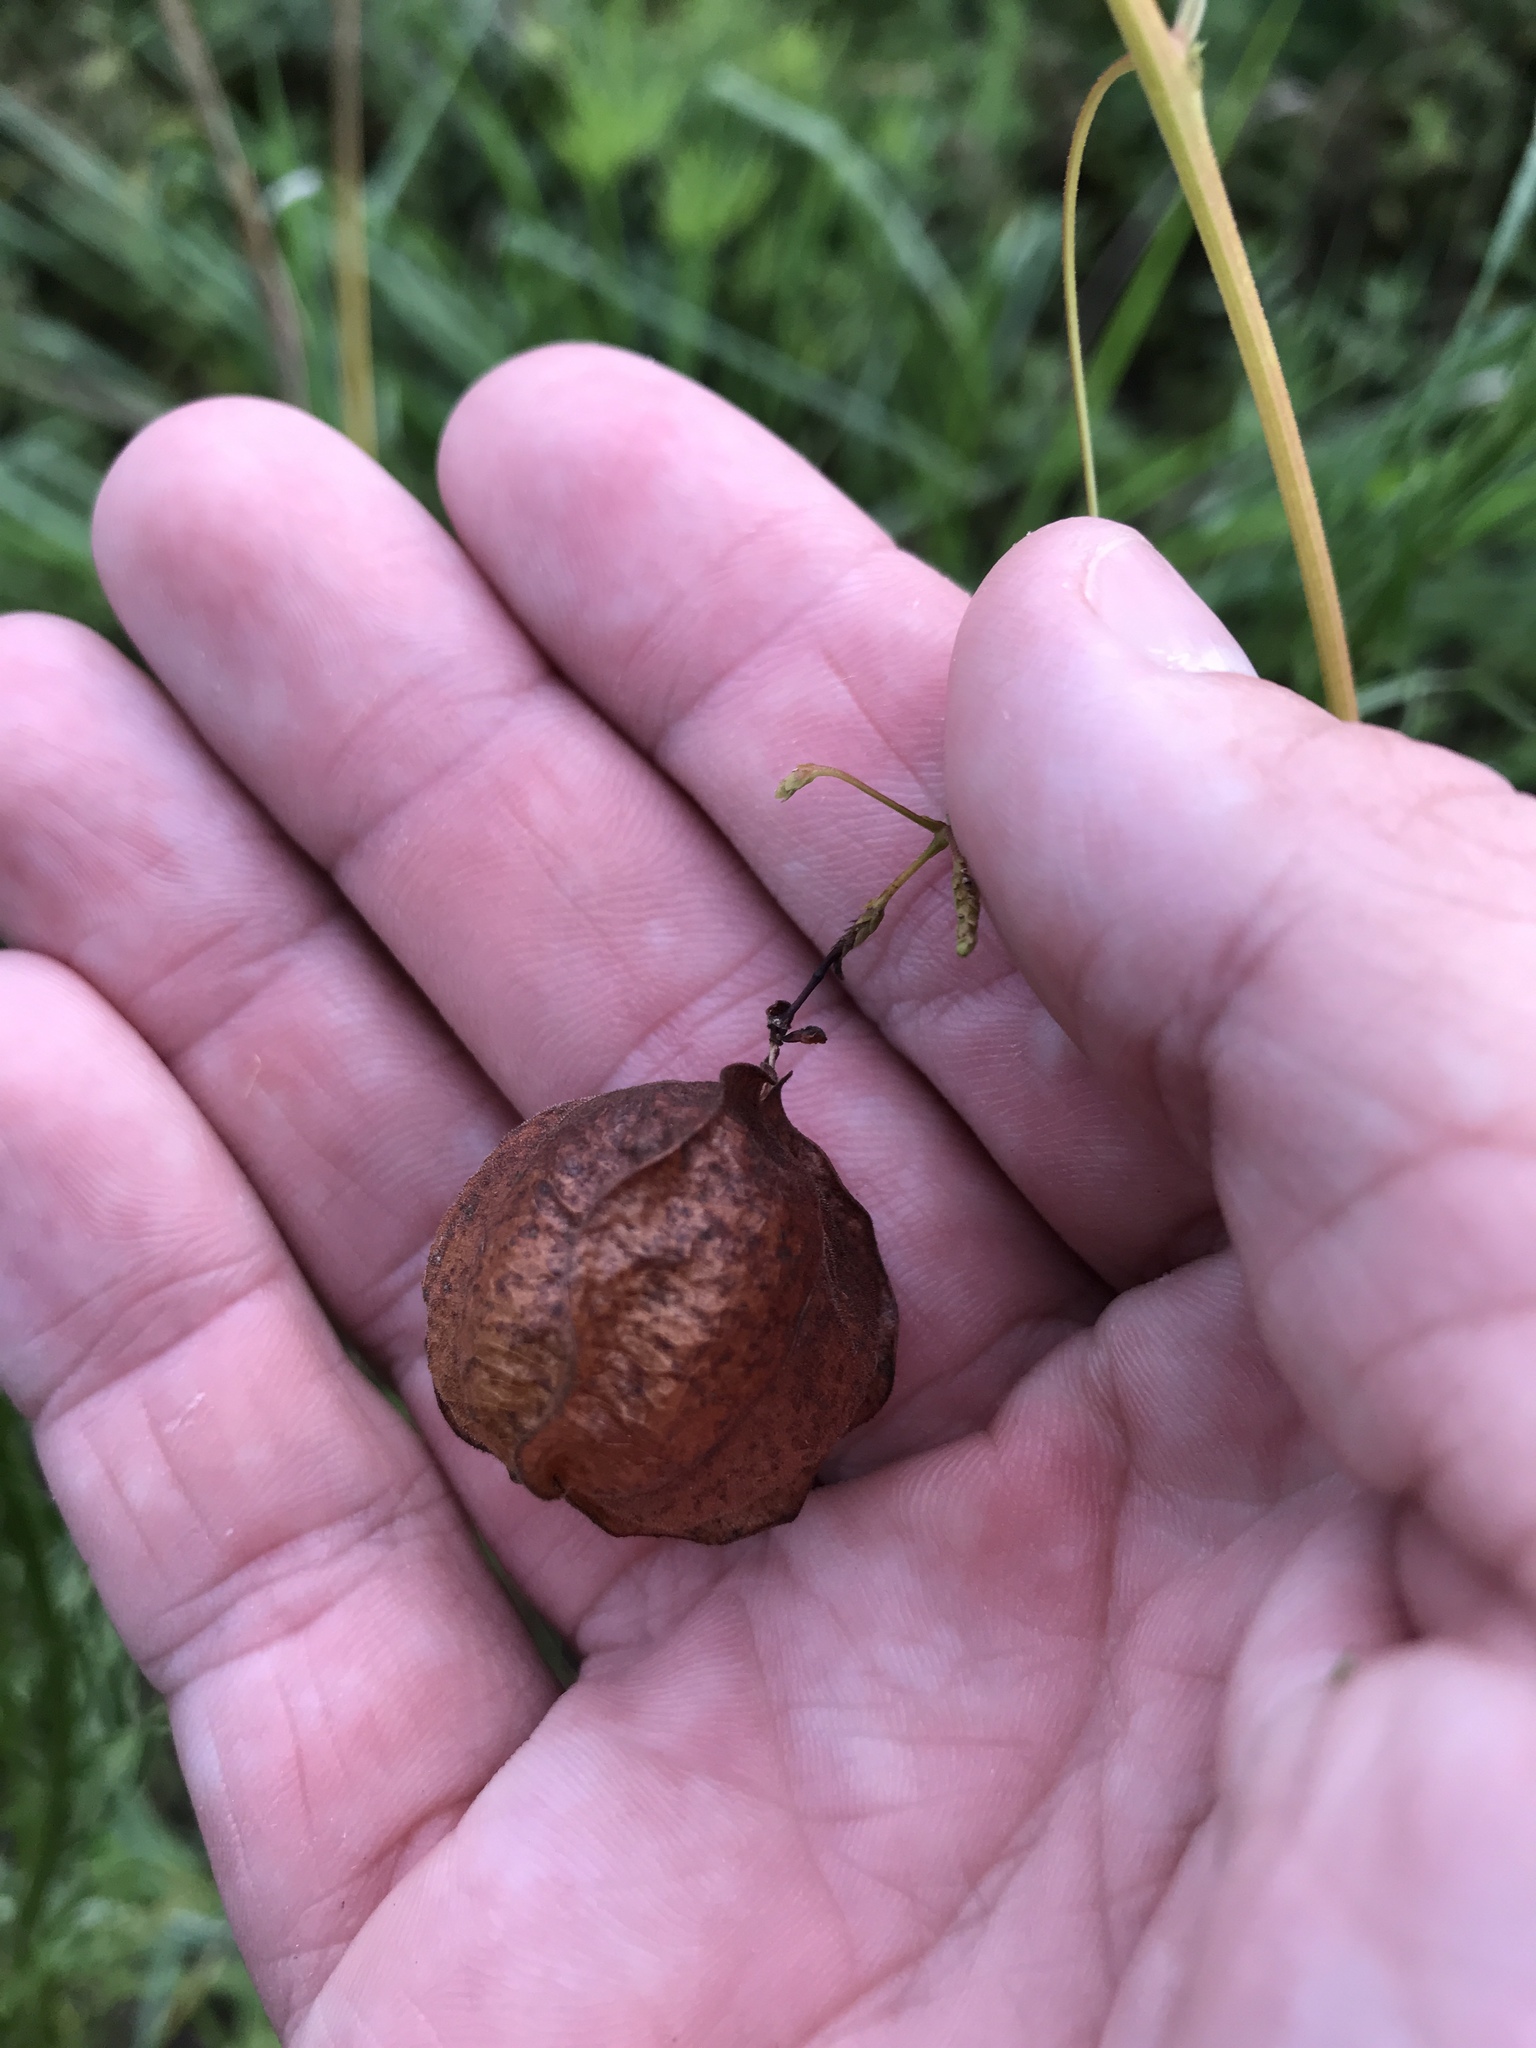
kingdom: Plantae
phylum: Tracheophyta
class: Magnoliopsida
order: Sapindales
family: Sapindaceae
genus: Cardiospermum
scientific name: Cardiospermum halicacabum
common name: Balloon vine
